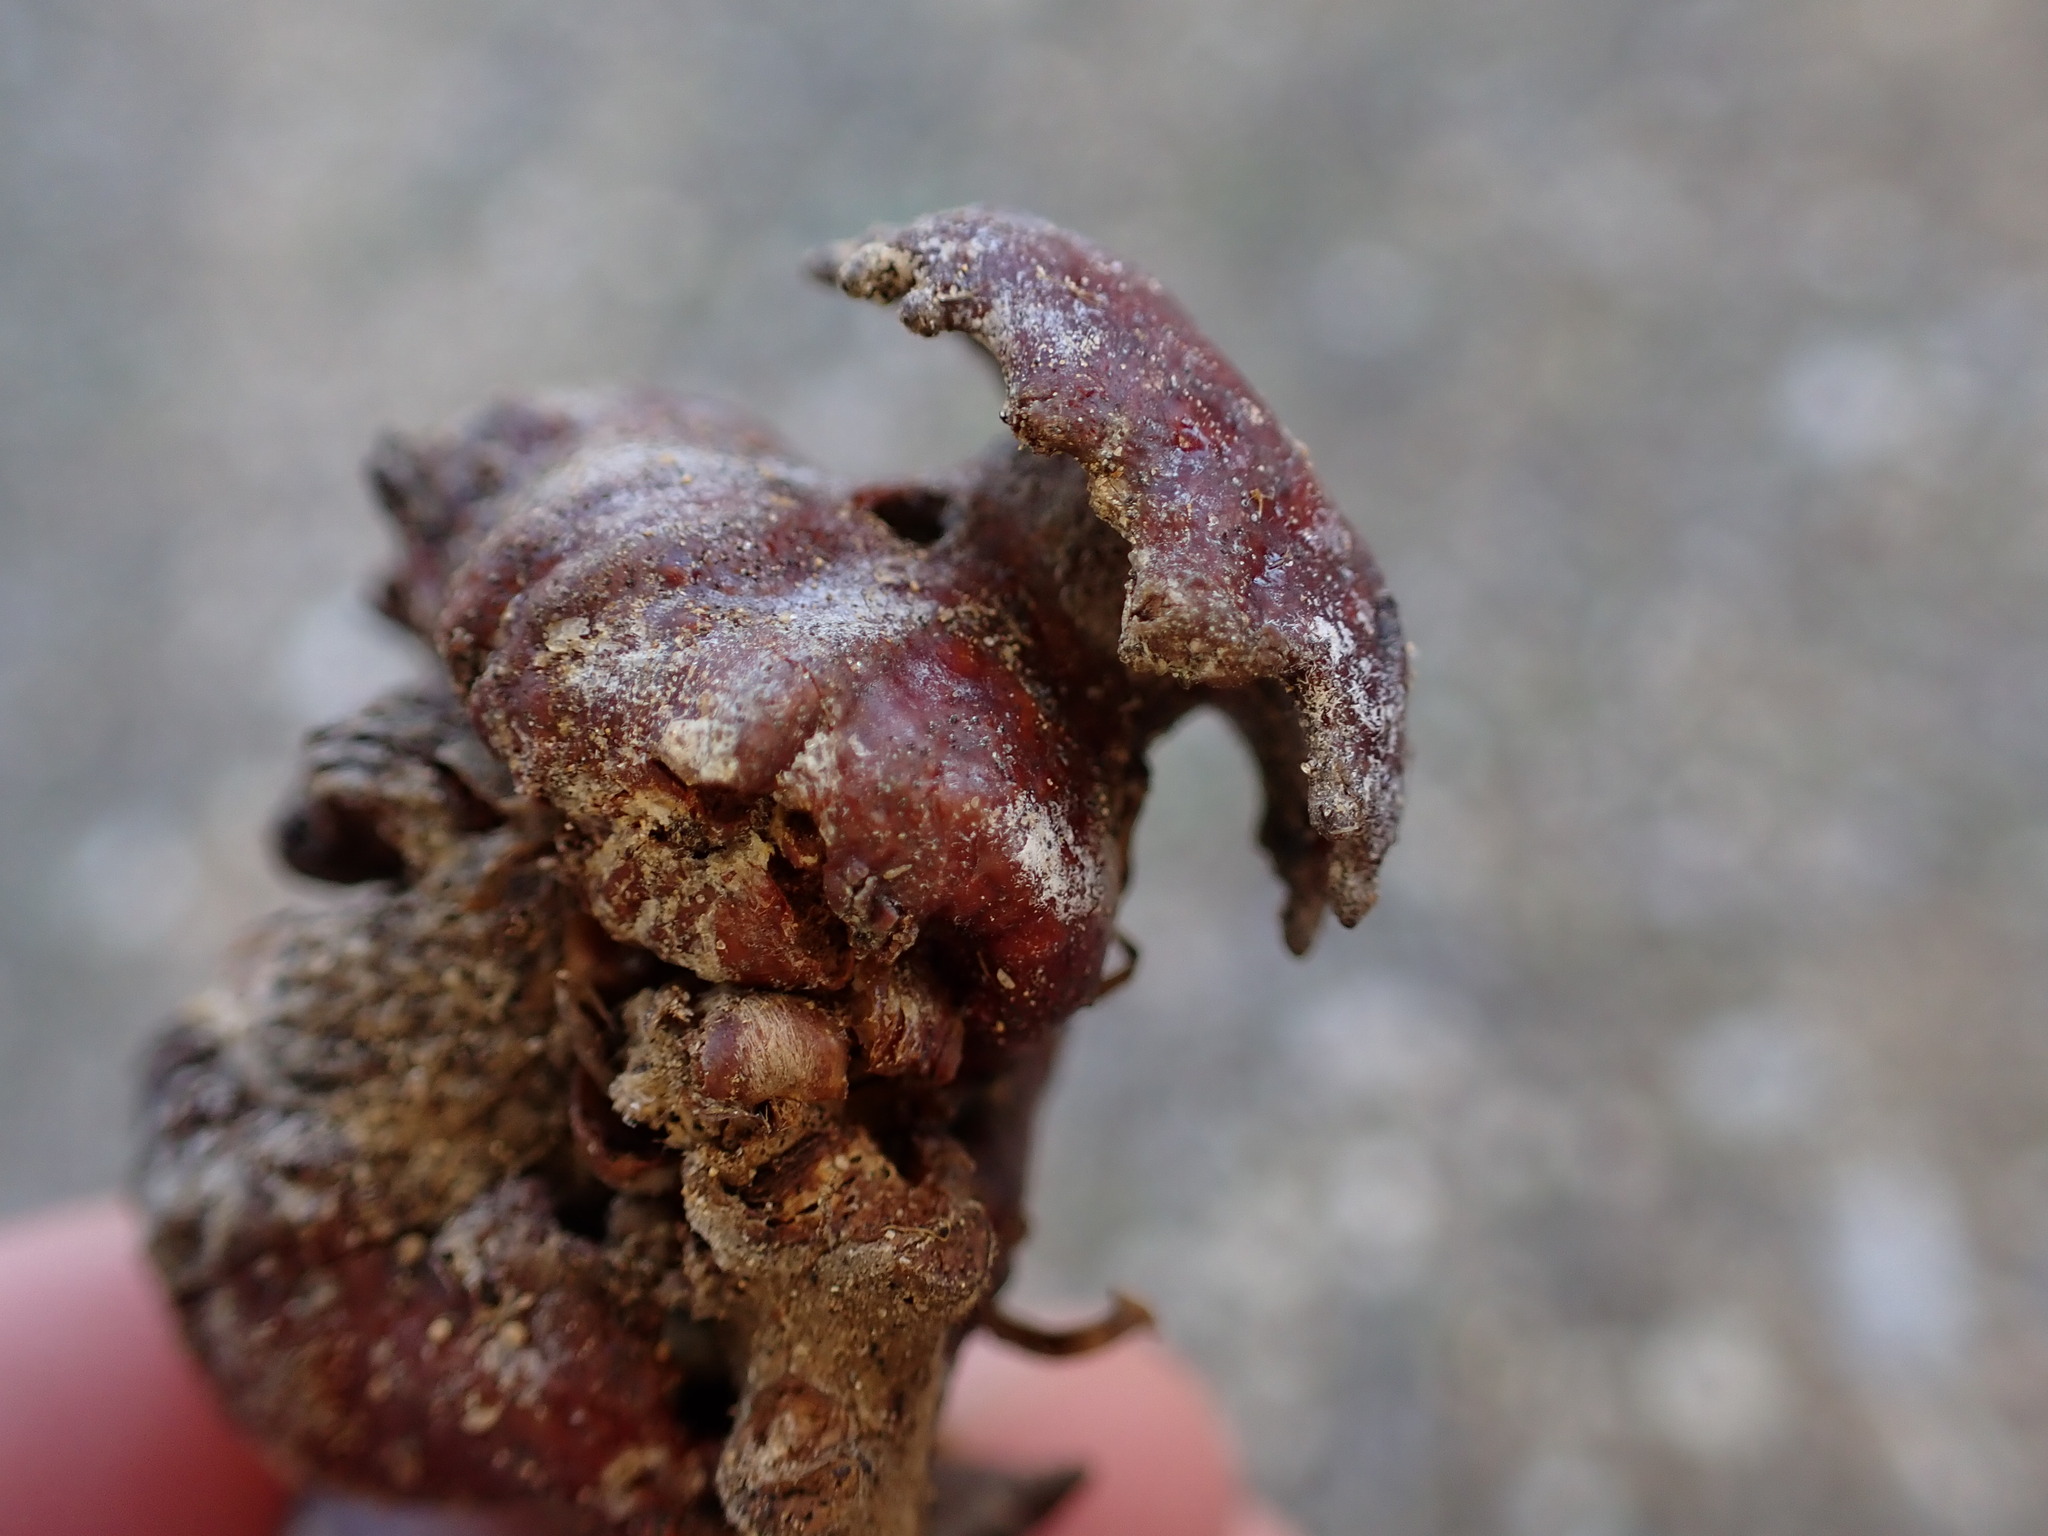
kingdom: Animalia
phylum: Arthropoda
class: Insecta
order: Hymenoptera
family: Cynipidae
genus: Andricus
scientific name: Andricus dentimitratus
